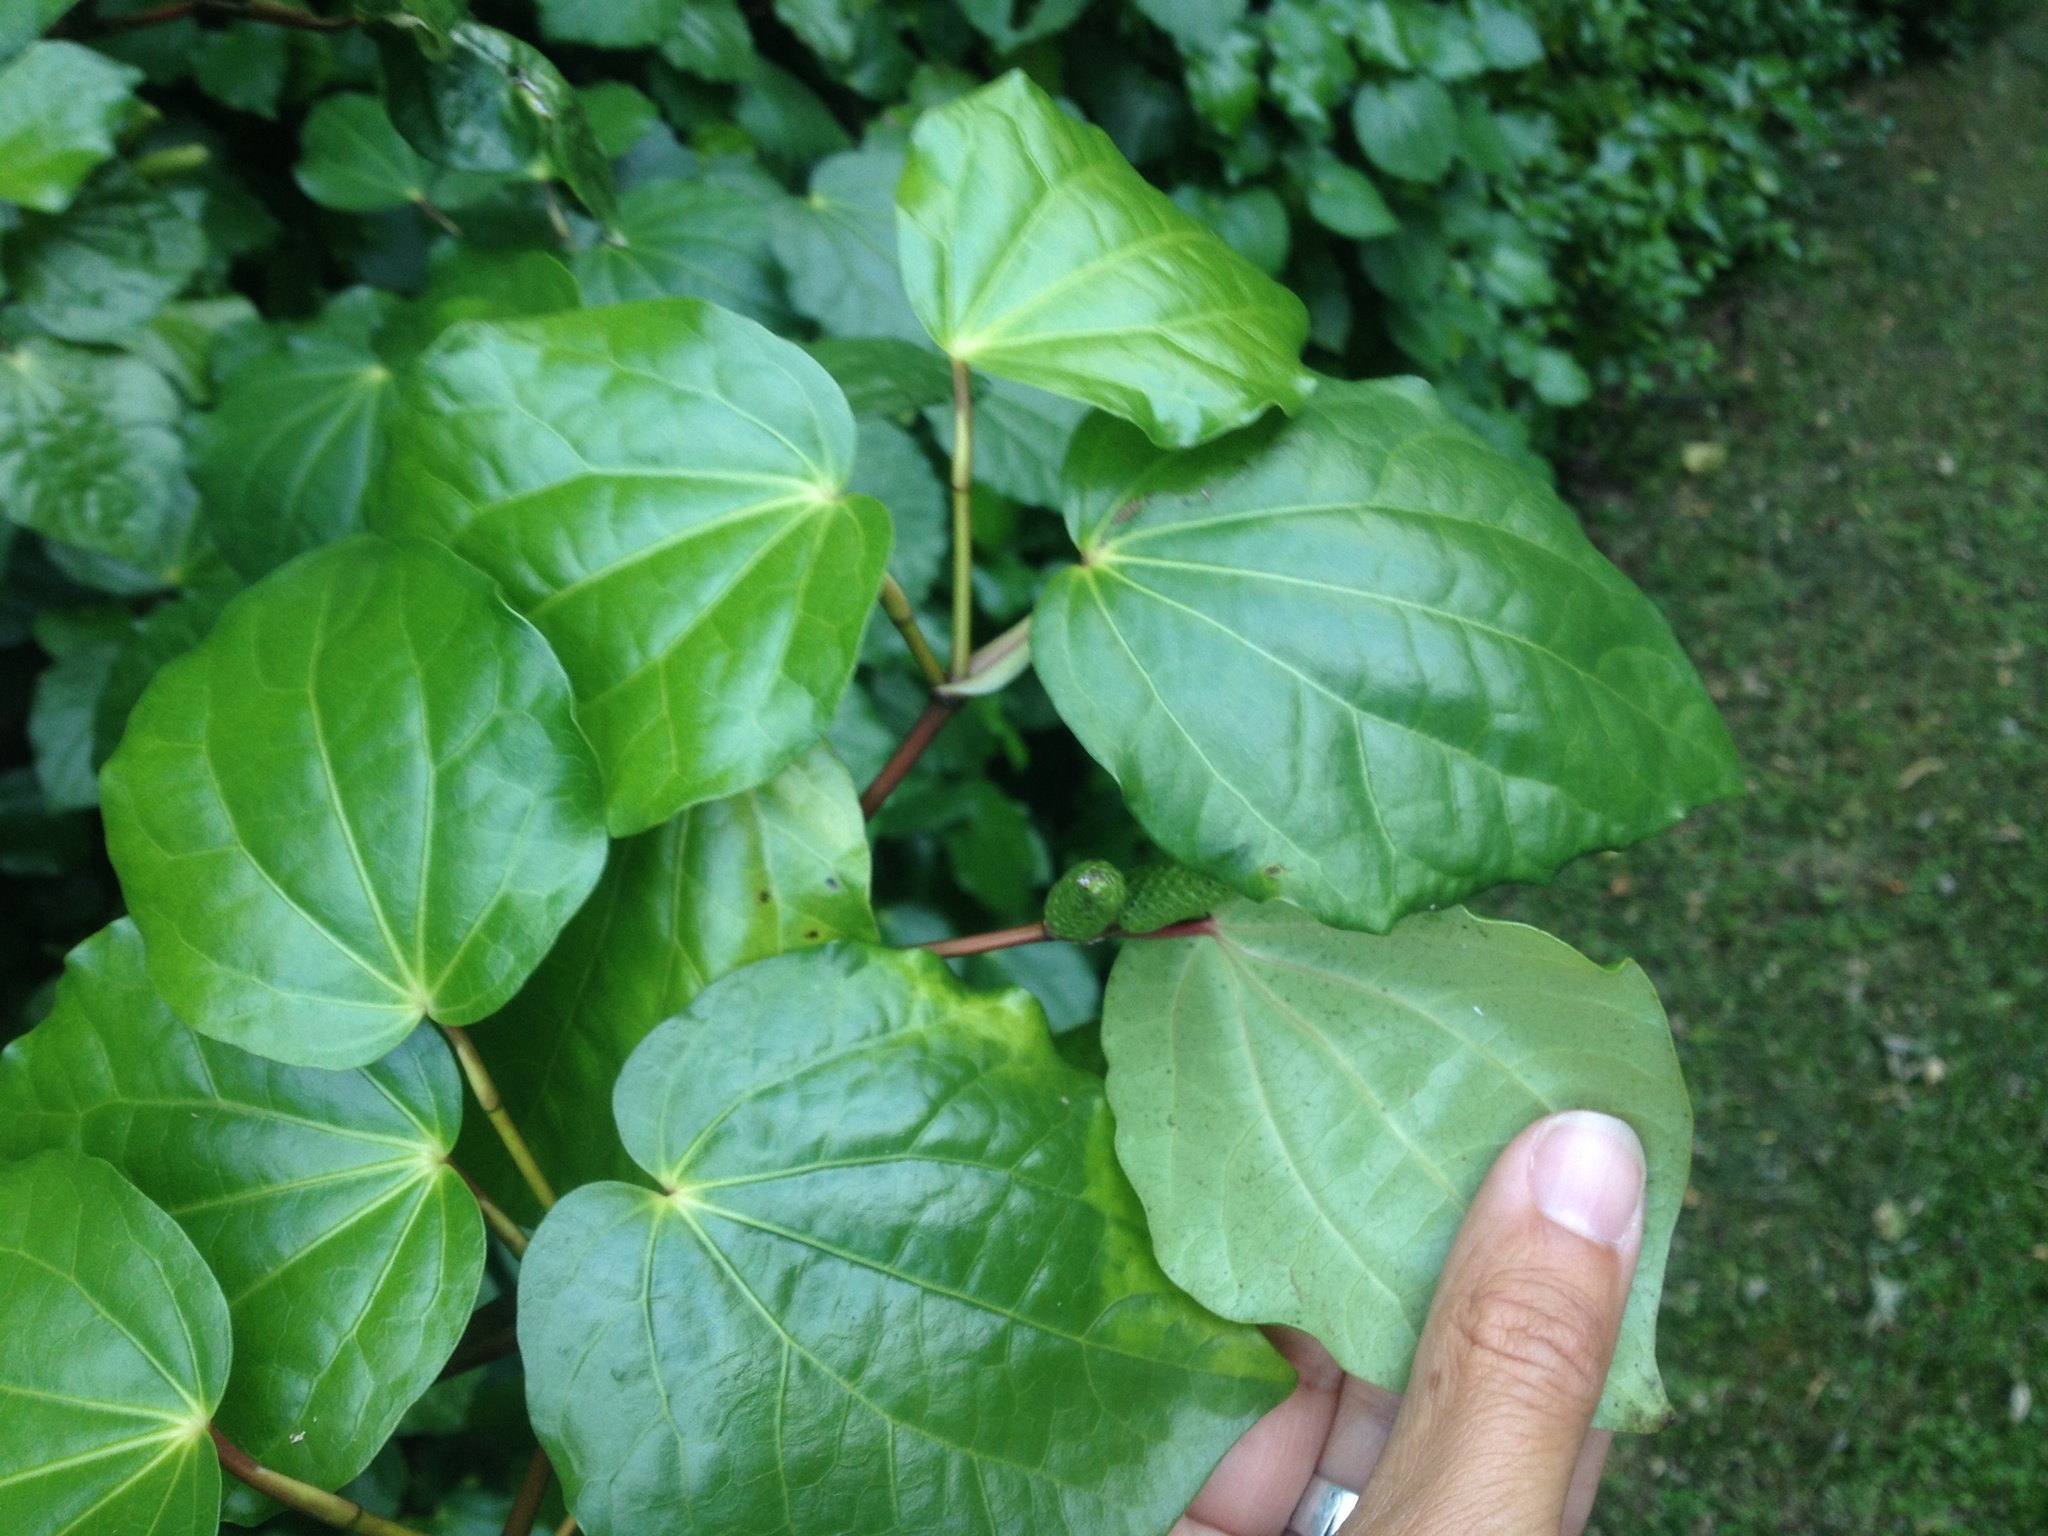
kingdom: Plantae
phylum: Tracheophyta
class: Magnoliopsida
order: Piperales
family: Piperaceae
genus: Macropiper
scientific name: Macropiper excelsum
